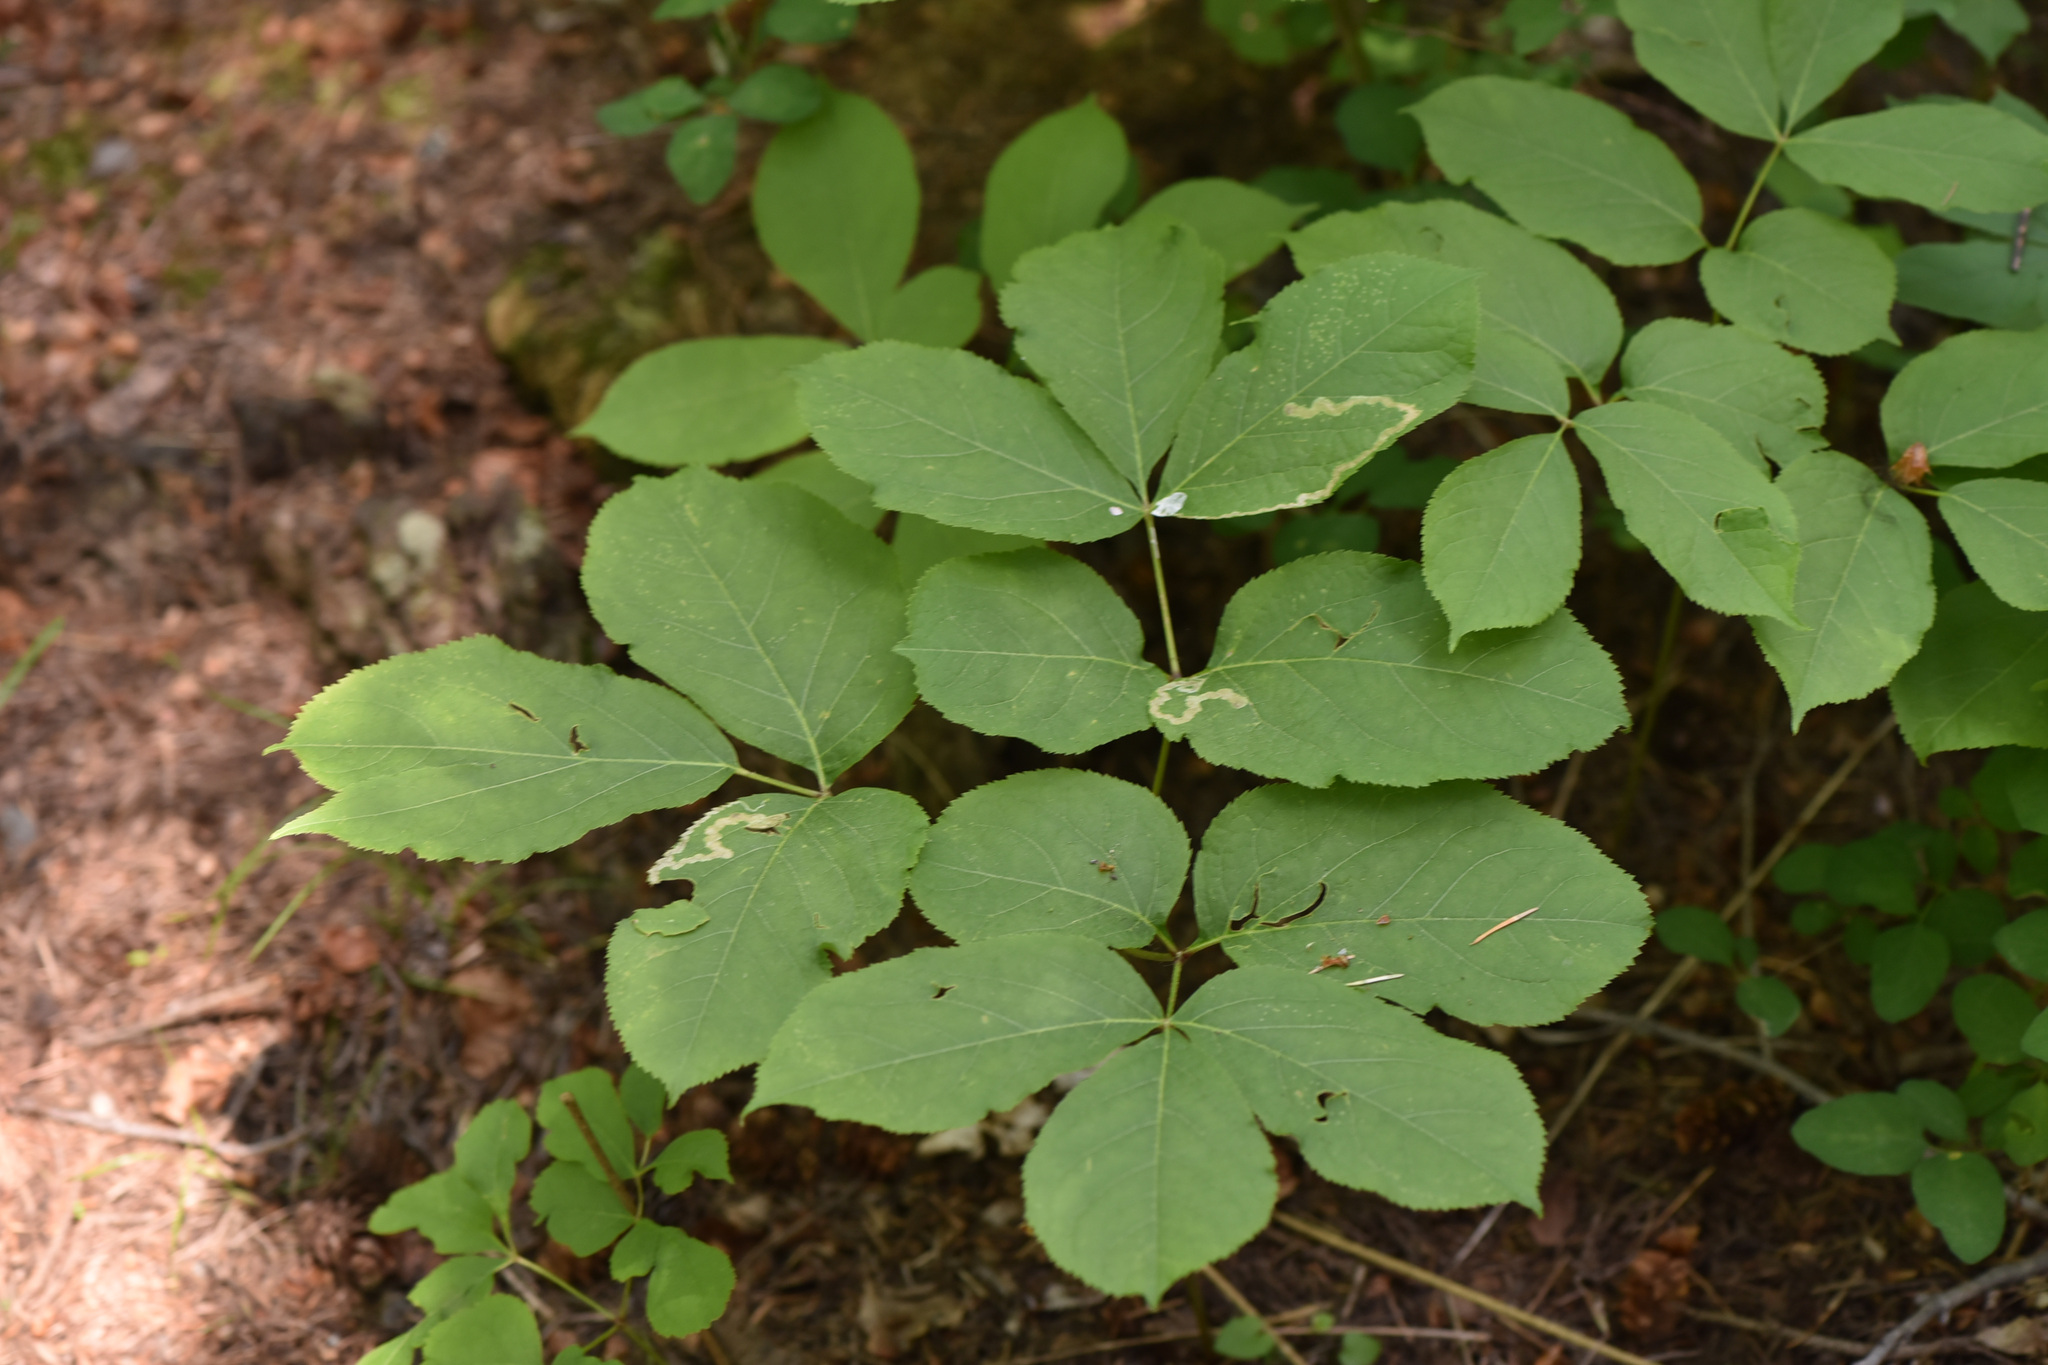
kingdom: Plantae
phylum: Tracheophyta
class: Magnoliopsida
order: Apiales
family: Araliaceae
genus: Aralia
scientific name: Aralia nudicaulis
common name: Wild sarsaparilla
